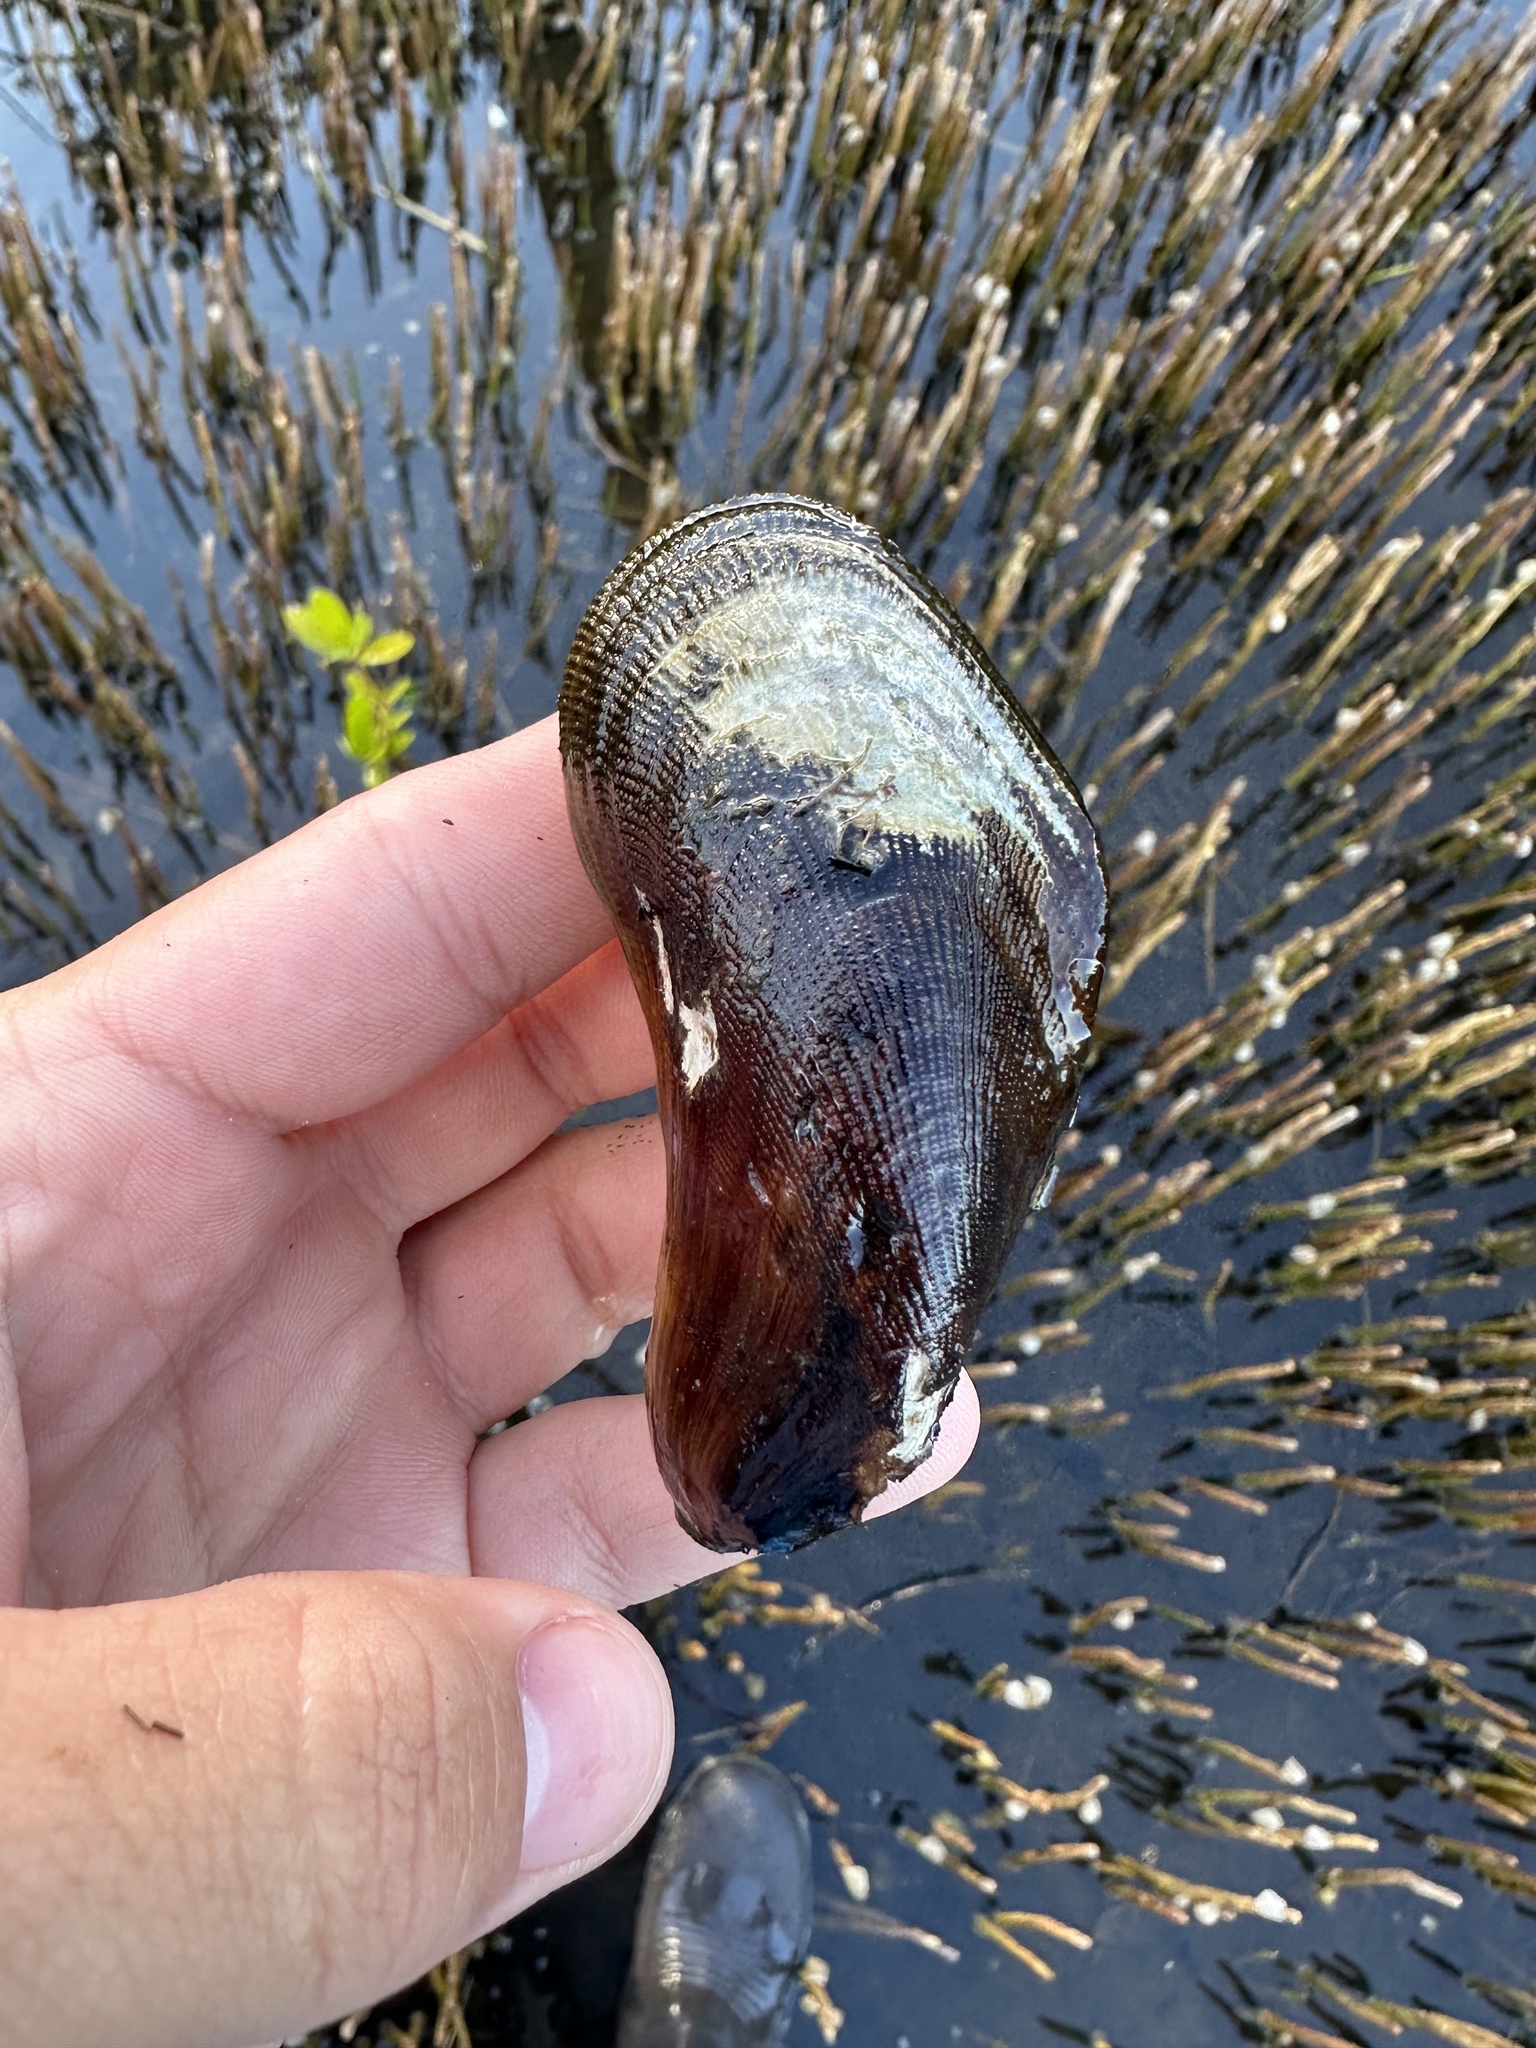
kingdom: Animalia
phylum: Mollusca
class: Bivalvia
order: Mytilida
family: Mytilidae
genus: Geukensia
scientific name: Geukensia granosissima
